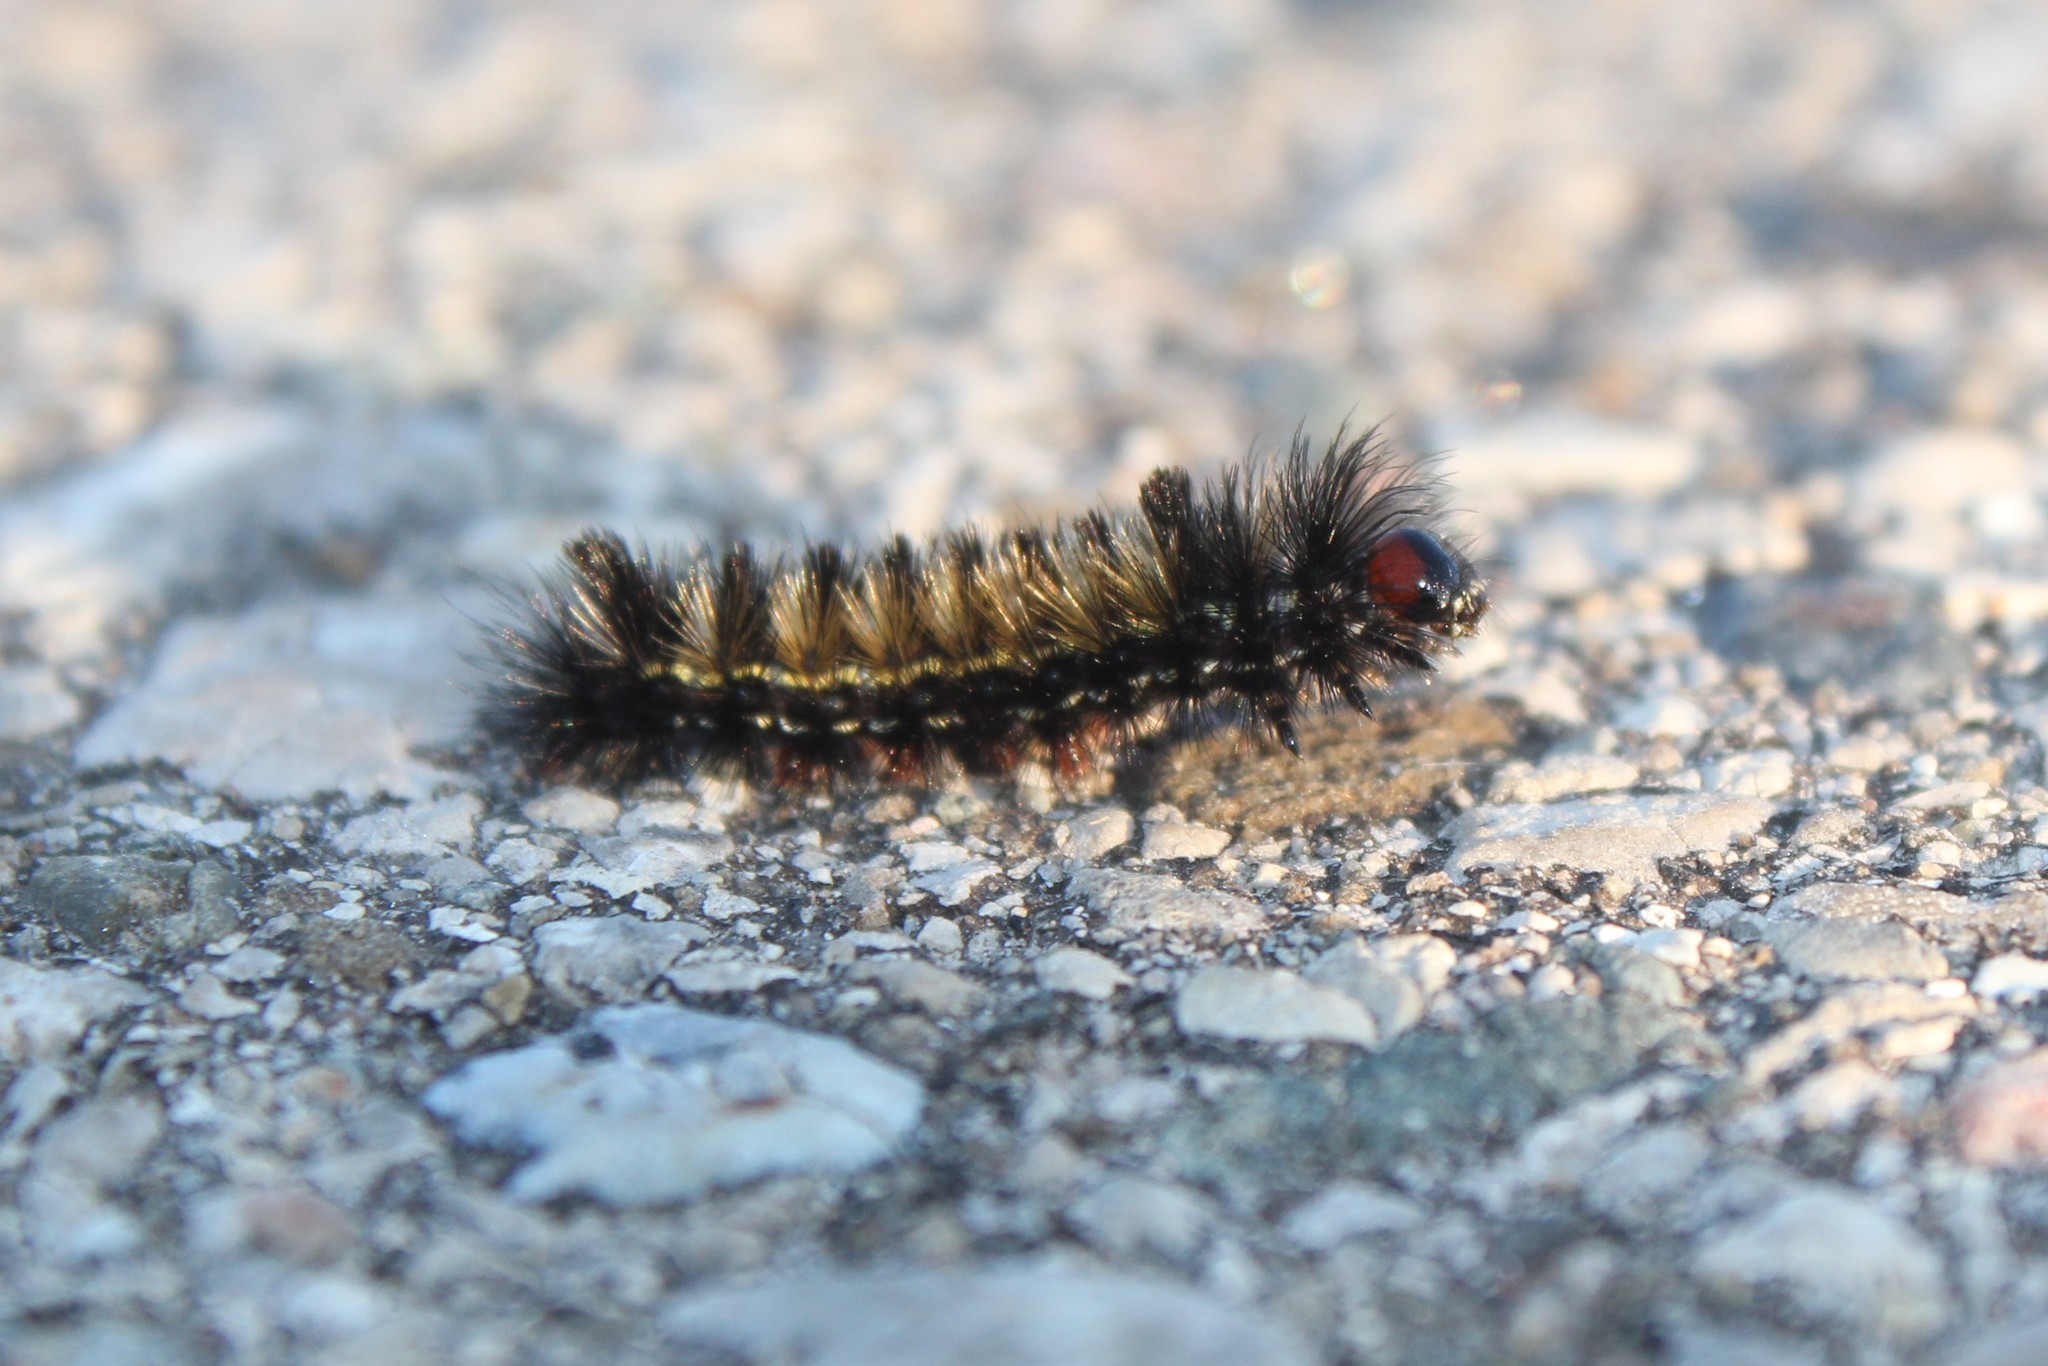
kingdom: Animalia
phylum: Arthropoda
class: Insecta
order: Lepidoptera
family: Erebidae
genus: Ctenucha
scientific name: Ctenucha virginica
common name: Virginia ctenucha moth
